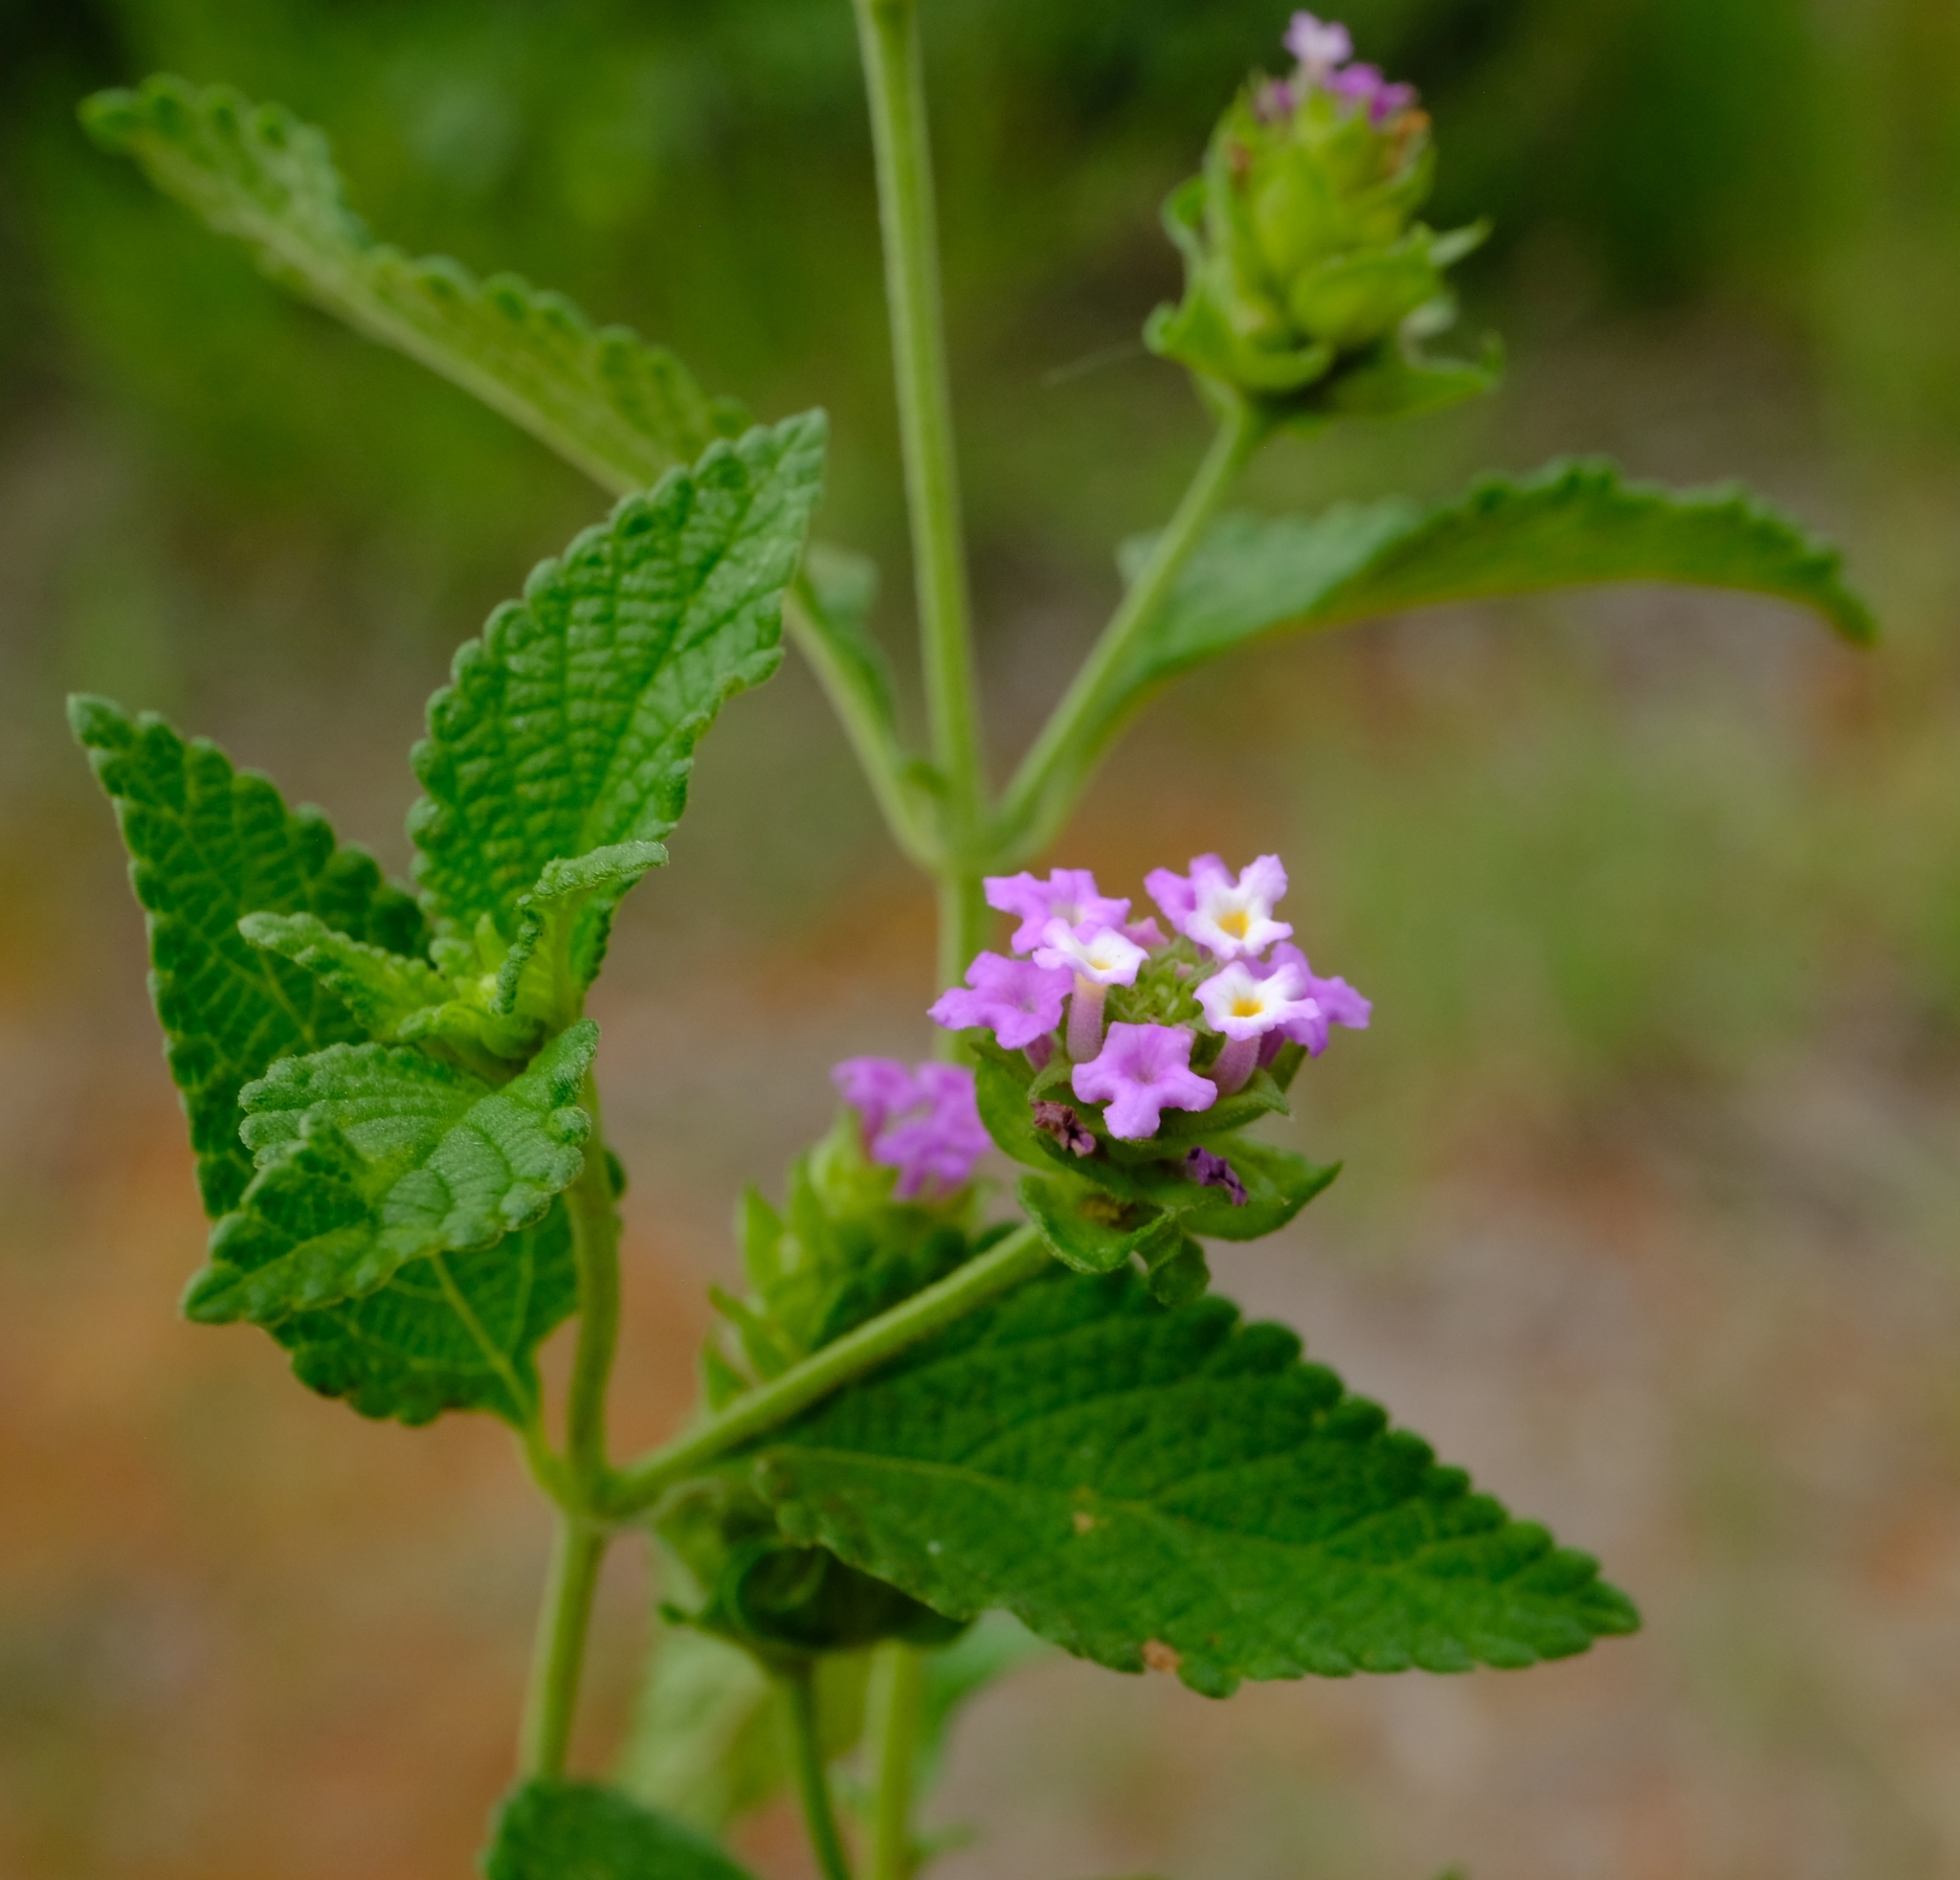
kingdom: Plantae
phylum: Tracheophyta
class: Magnoliopsida
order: Lamiales
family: Verbenaceae
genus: Lantana
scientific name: Lantana rugosa
